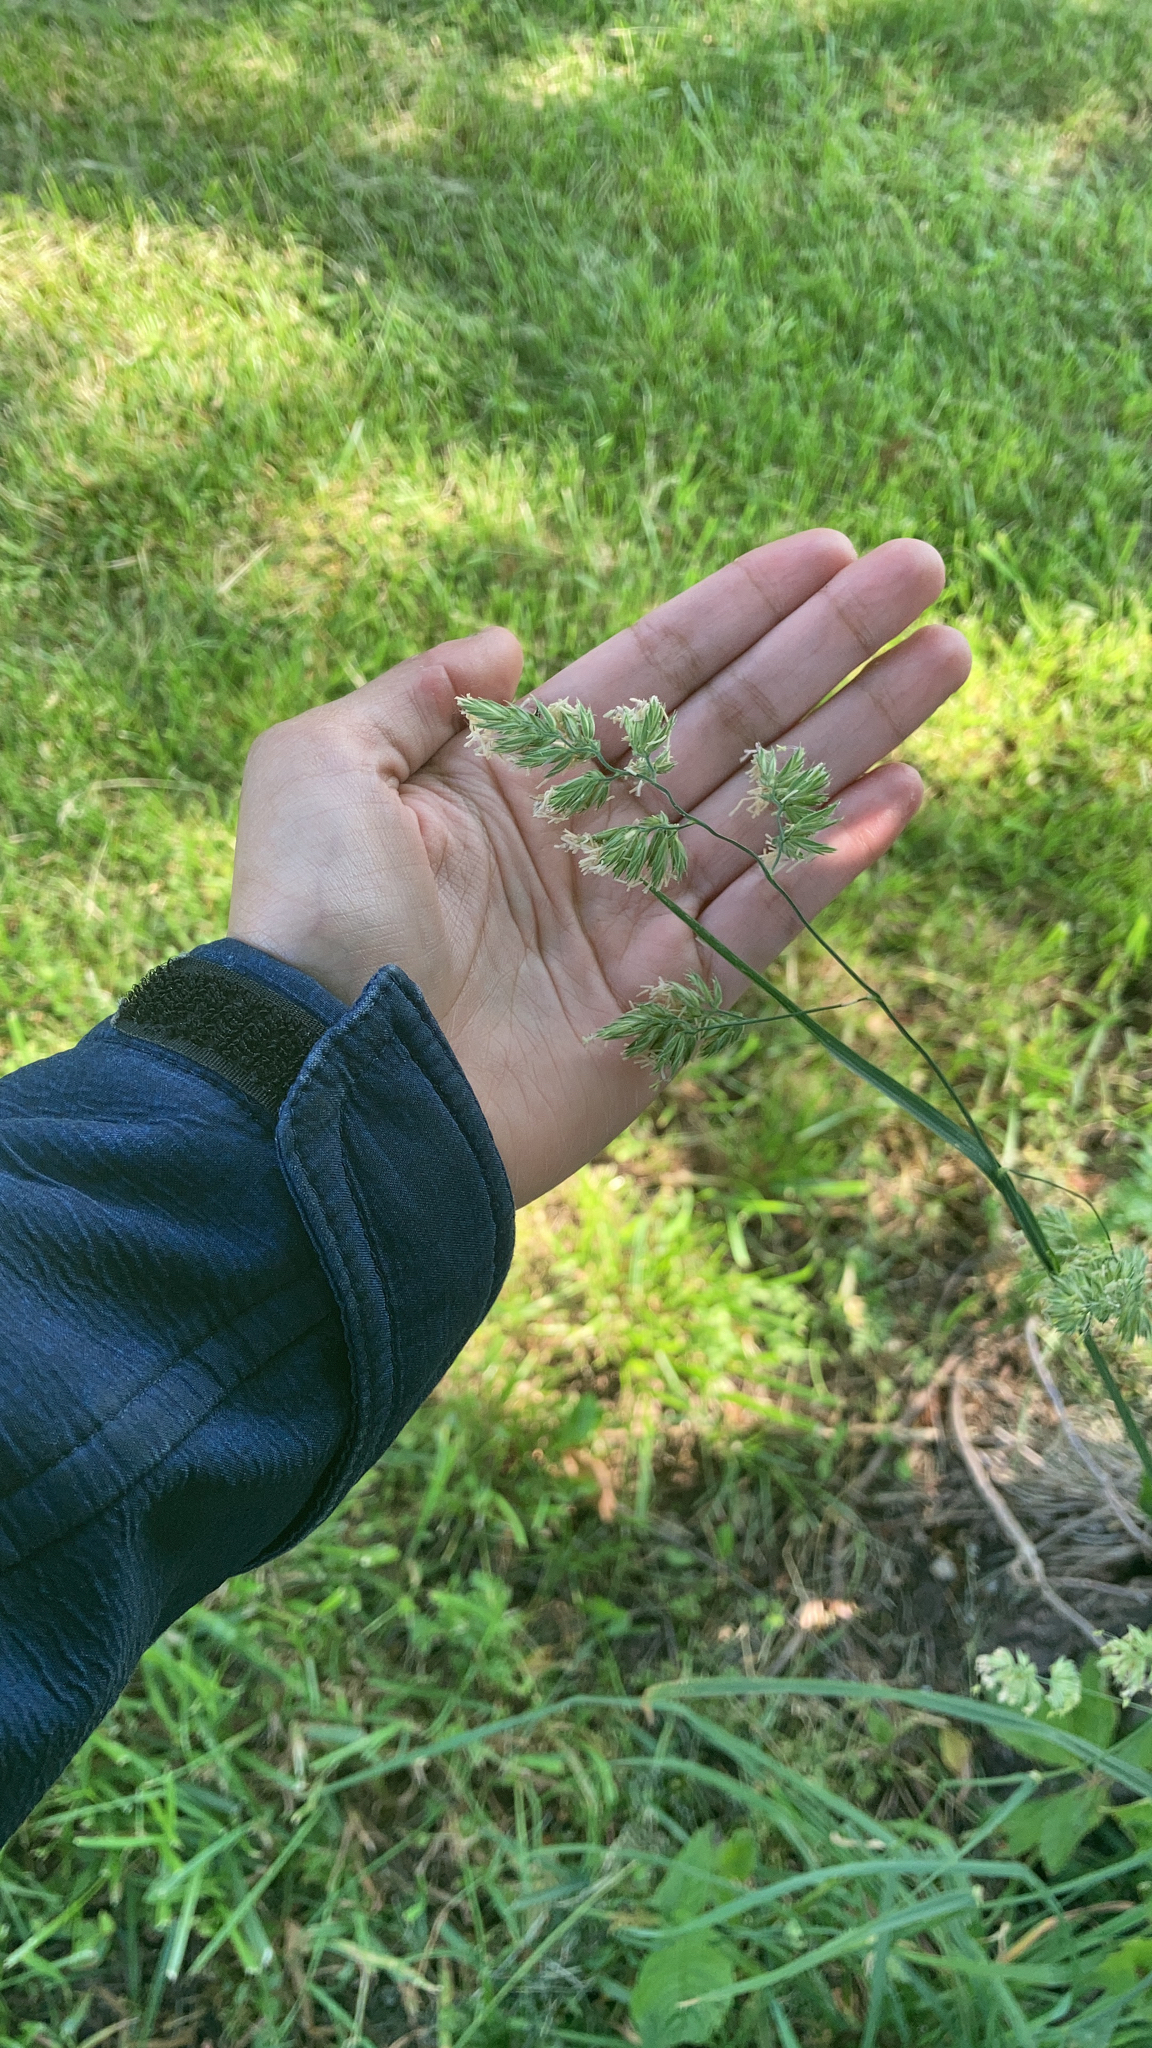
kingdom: Plantae
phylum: Tracheophyta
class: Liliopsida
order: Poales
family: Poaceae
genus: Dactylis
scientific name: Dactylis glomerata
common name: Orchardgrass
